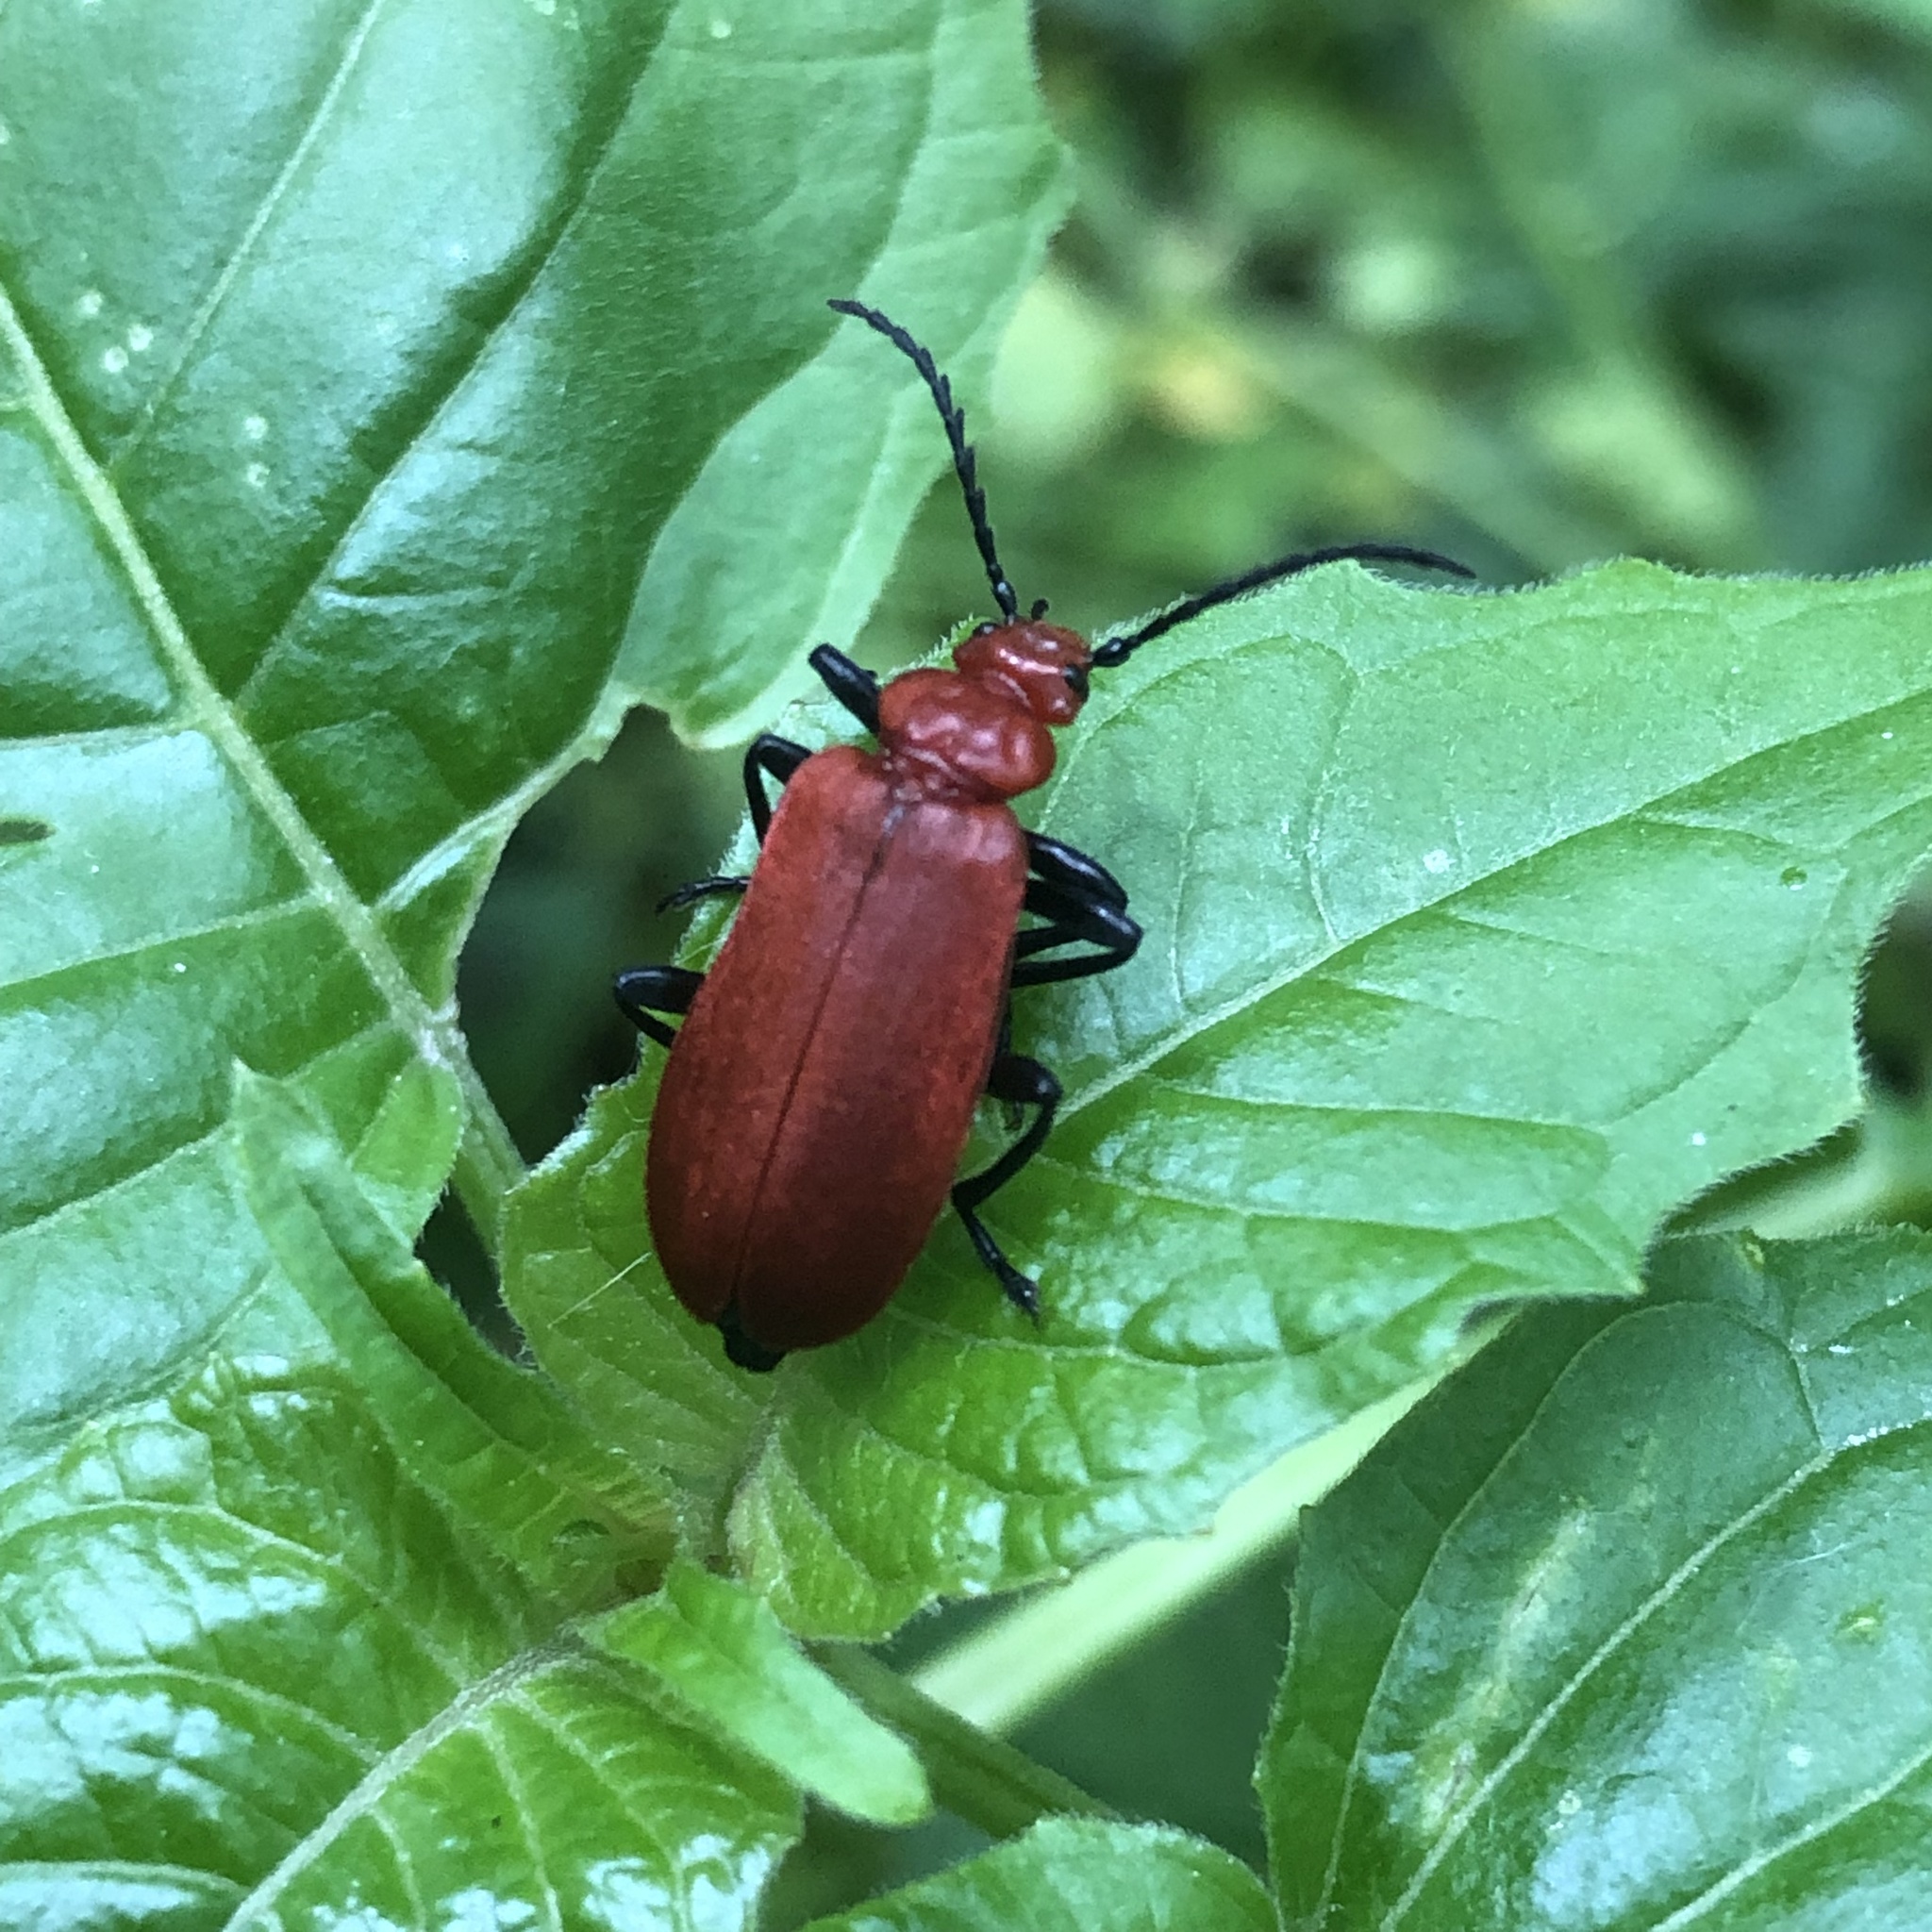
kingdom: Animalia
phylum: Arthropoda
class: Insecta
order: Coleoptera
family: Pyrochroidae
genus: Pyrochroa
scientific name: Pyrochroa serraticornis
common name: Red-headed cardinal beetle
